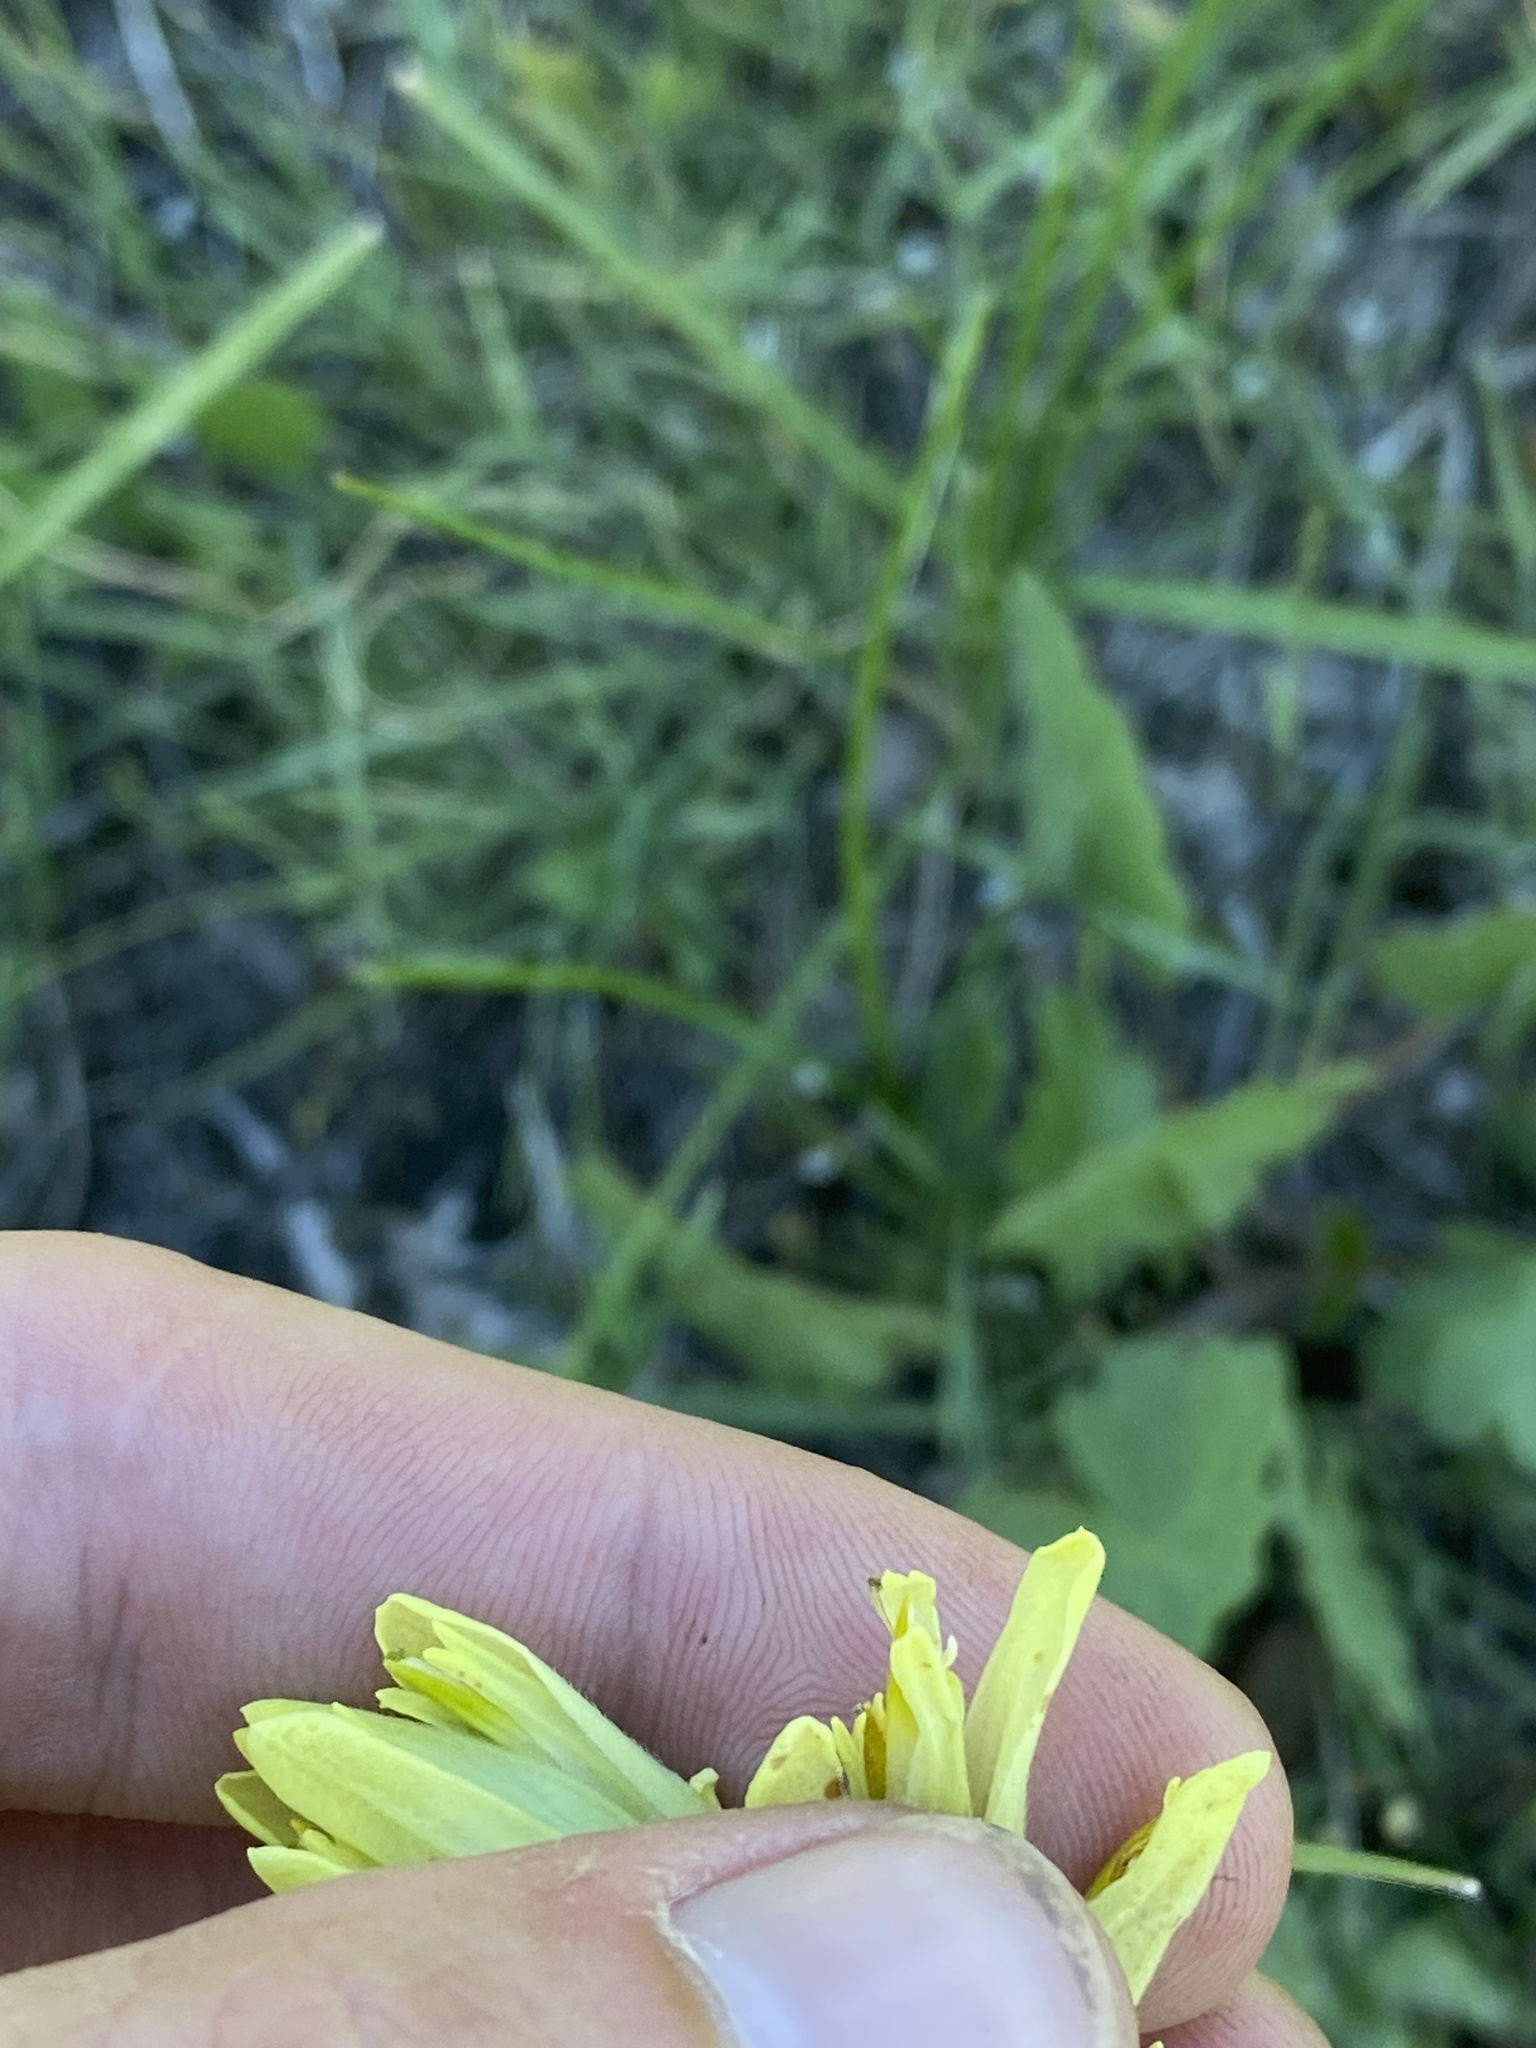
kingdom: Plantae
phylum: Tracheophyta
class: Magnoliopsida
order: Lamiales
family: Orobanchaceae
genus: Castilleja
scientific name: Castilleja cusickii
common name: Cusick's paintbrush
